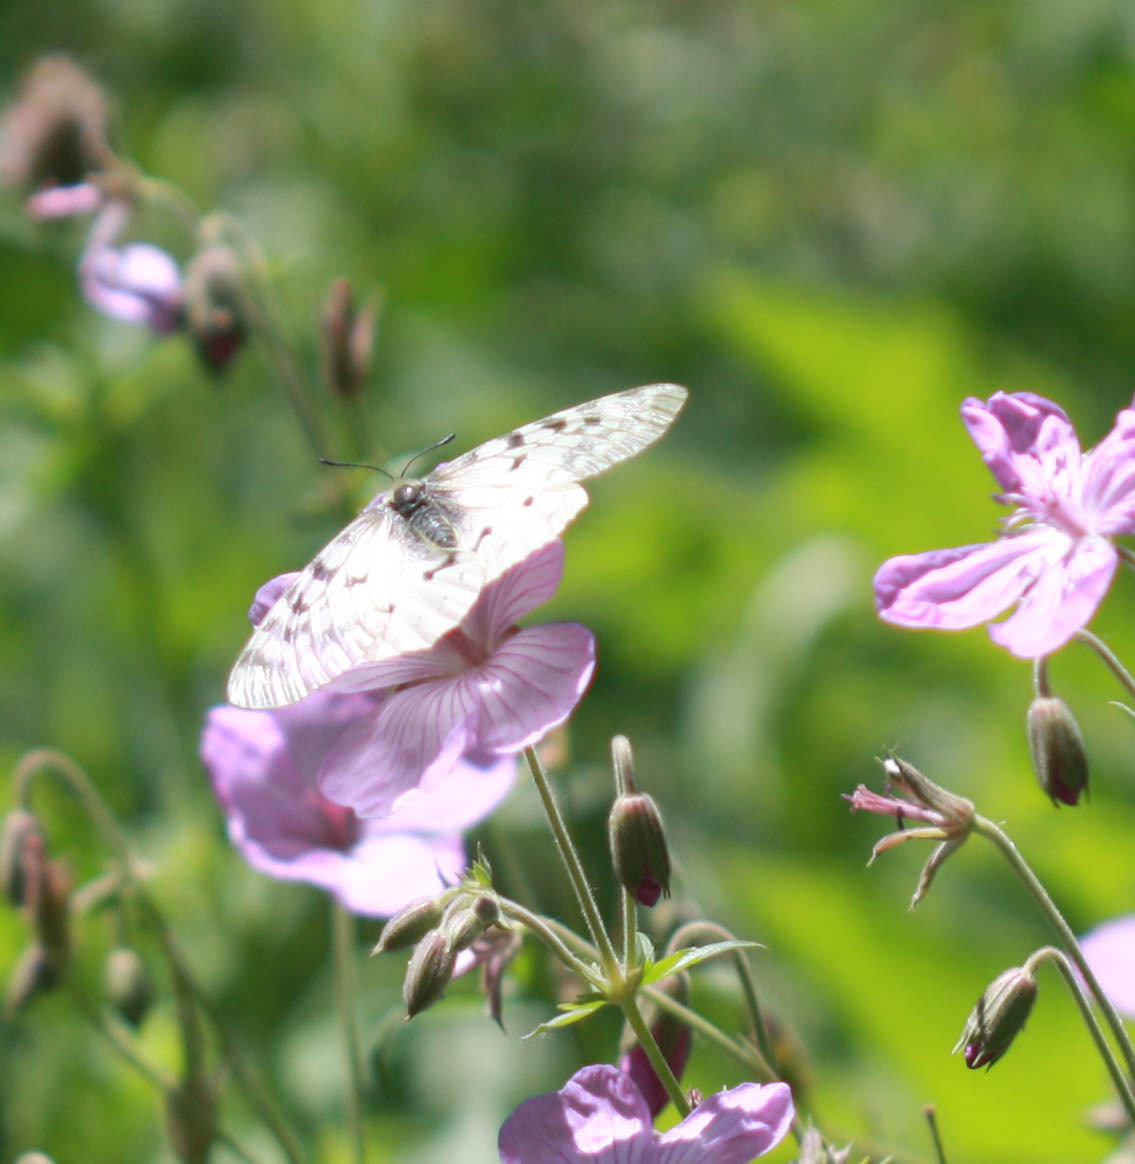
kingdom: Animalia
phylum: Arthropoda
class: Insecta
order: Lepidoptera
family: Papilionidae
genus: Parnassius
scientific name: Parnassius clodius
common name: American apollo
